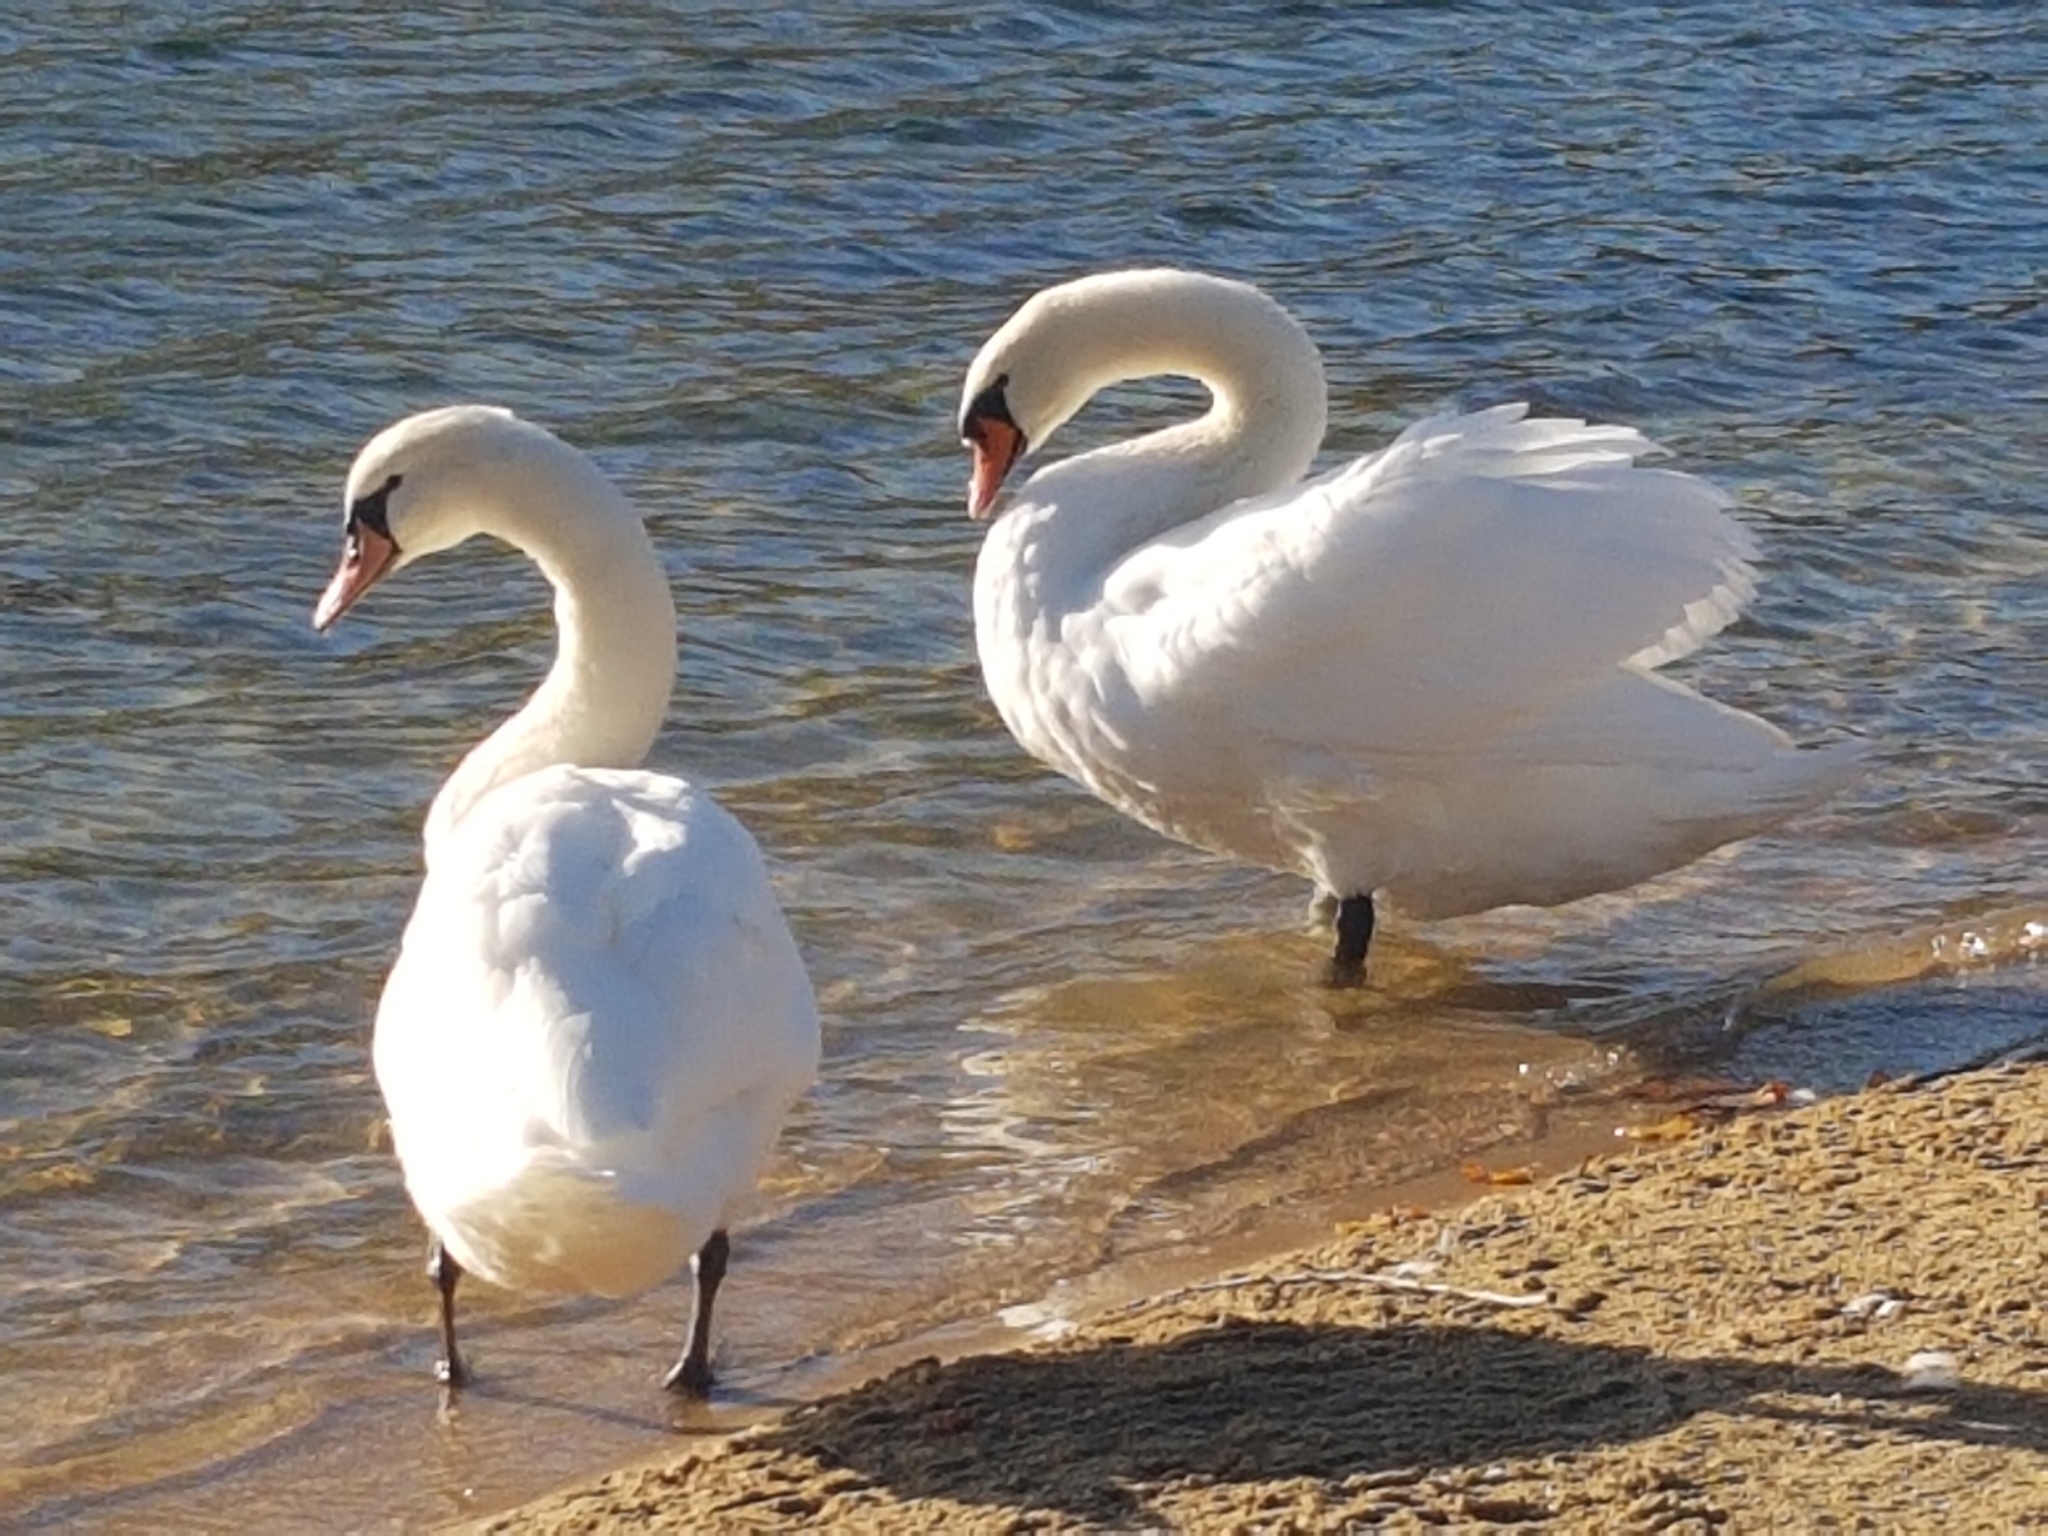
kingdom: Animalia
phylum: Chordata
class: Aves
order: Anseriformes
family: Anatidae
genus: Cygnus
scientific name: Cygnus olor
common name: Mute swan
